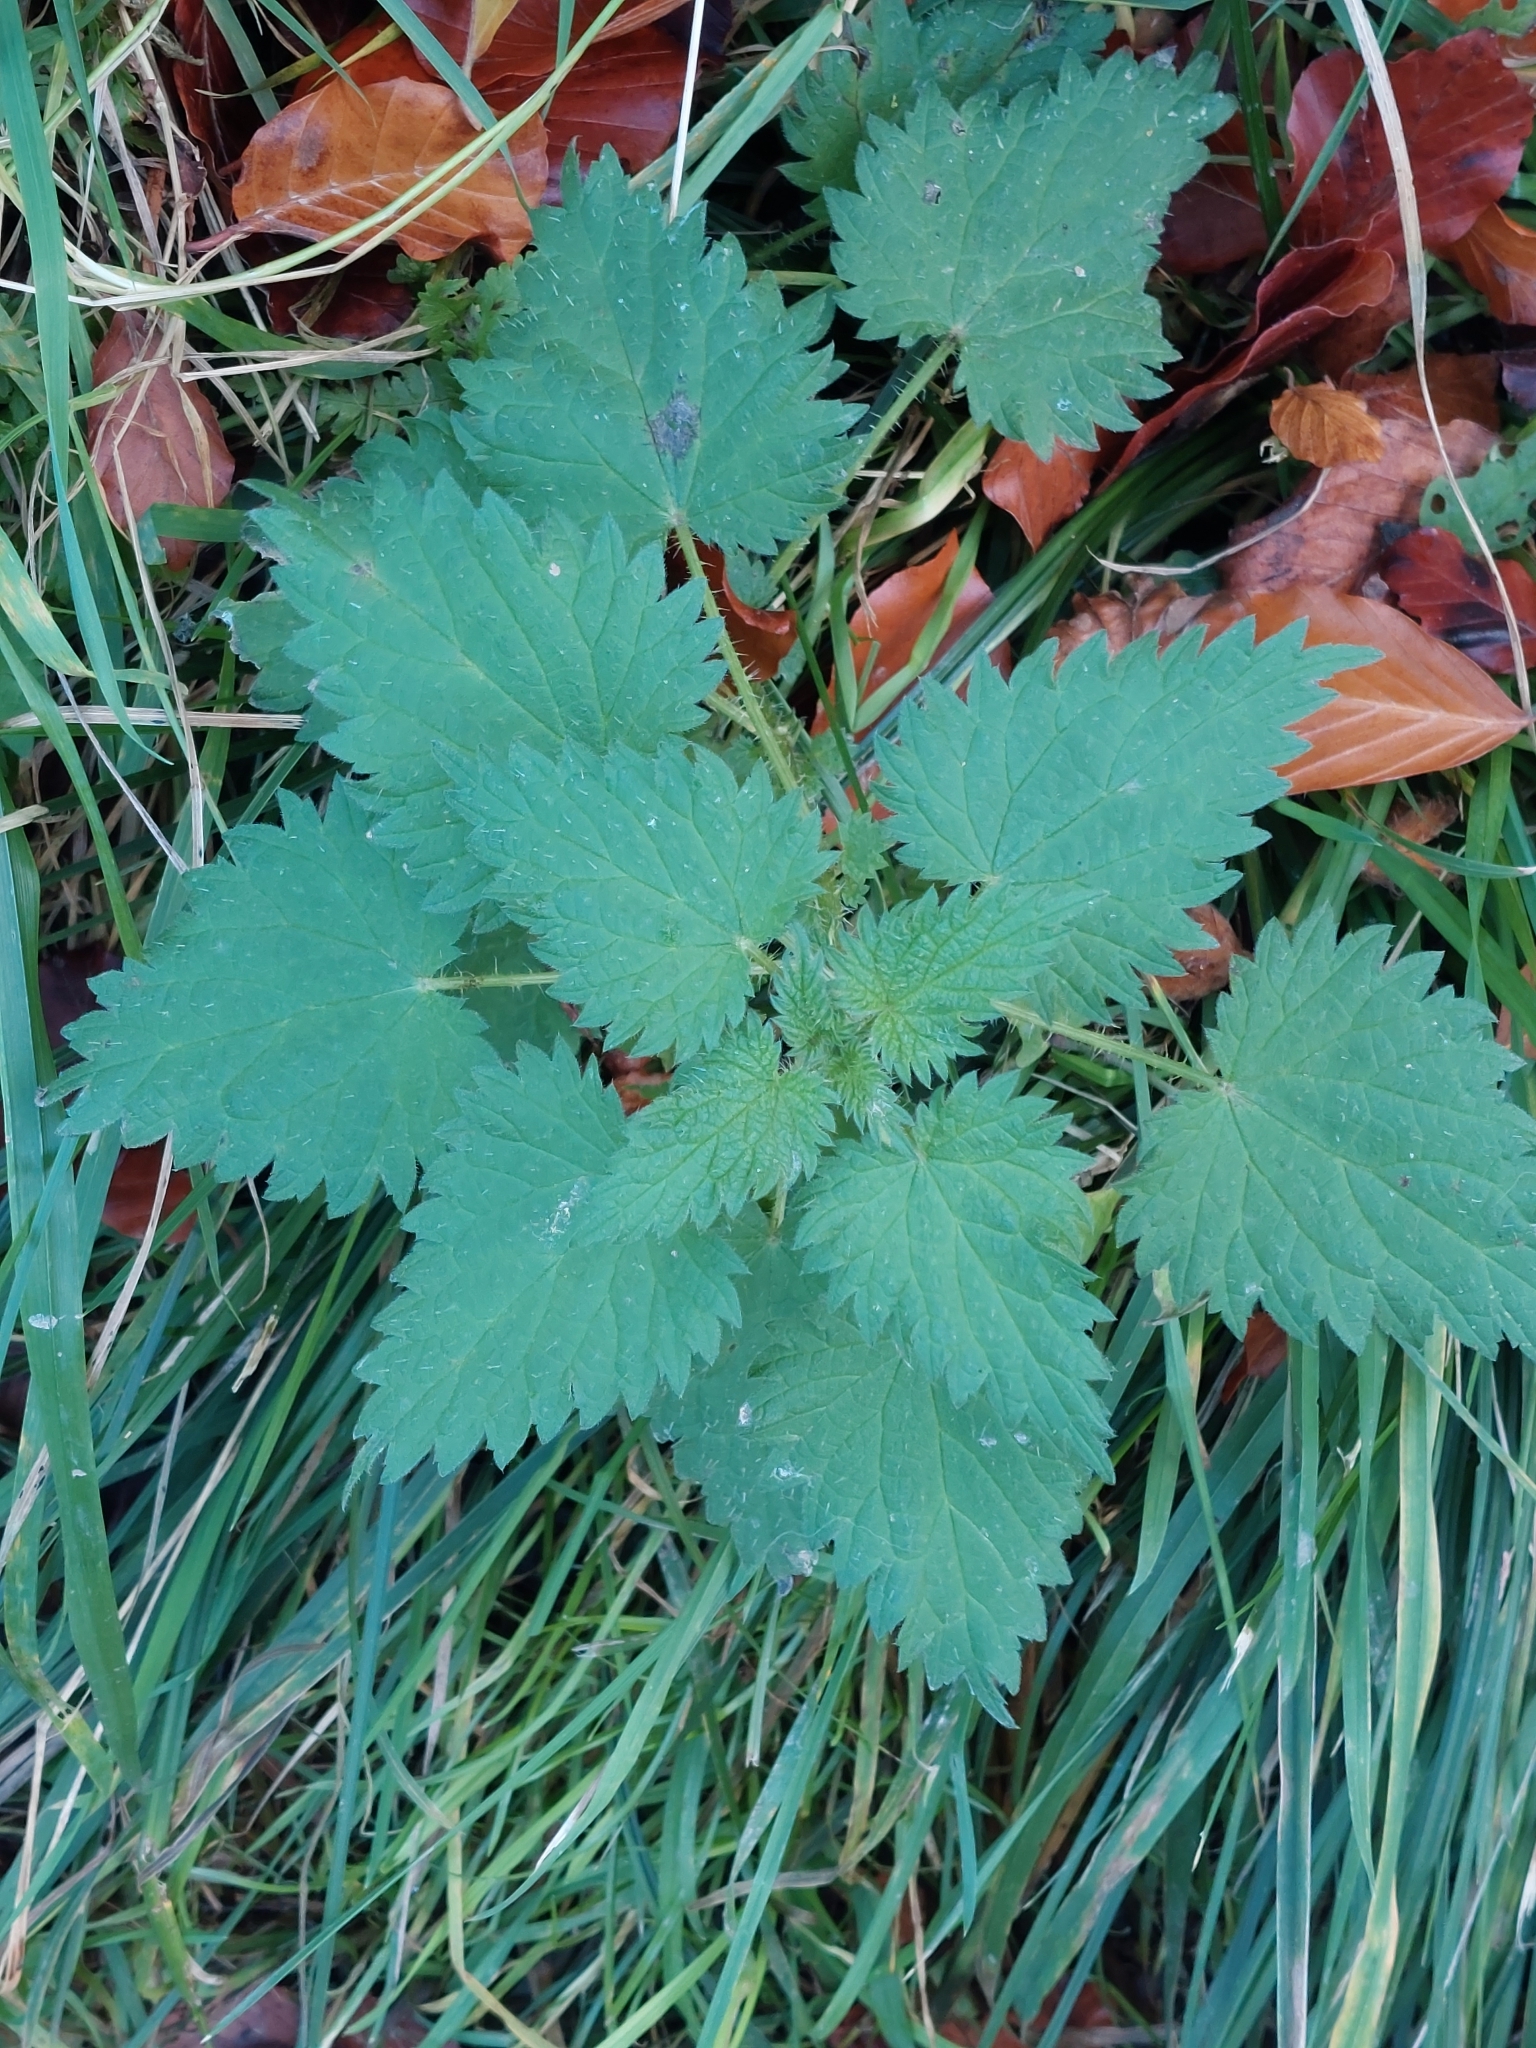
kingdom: Plantae
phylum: Tracheophyta
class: Magnoliopsida
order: Rosales
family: Urticaceae
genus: Urtica
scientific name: Urtica dioica
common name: Common nettle
